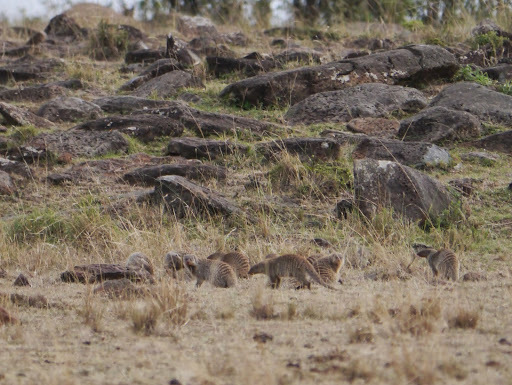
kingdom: Animalia
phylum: Chordata
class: Mammalia
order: Carnivora
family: Herpestidae
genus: Mungos
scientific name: Mungos mungo
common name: Banded mongoose
